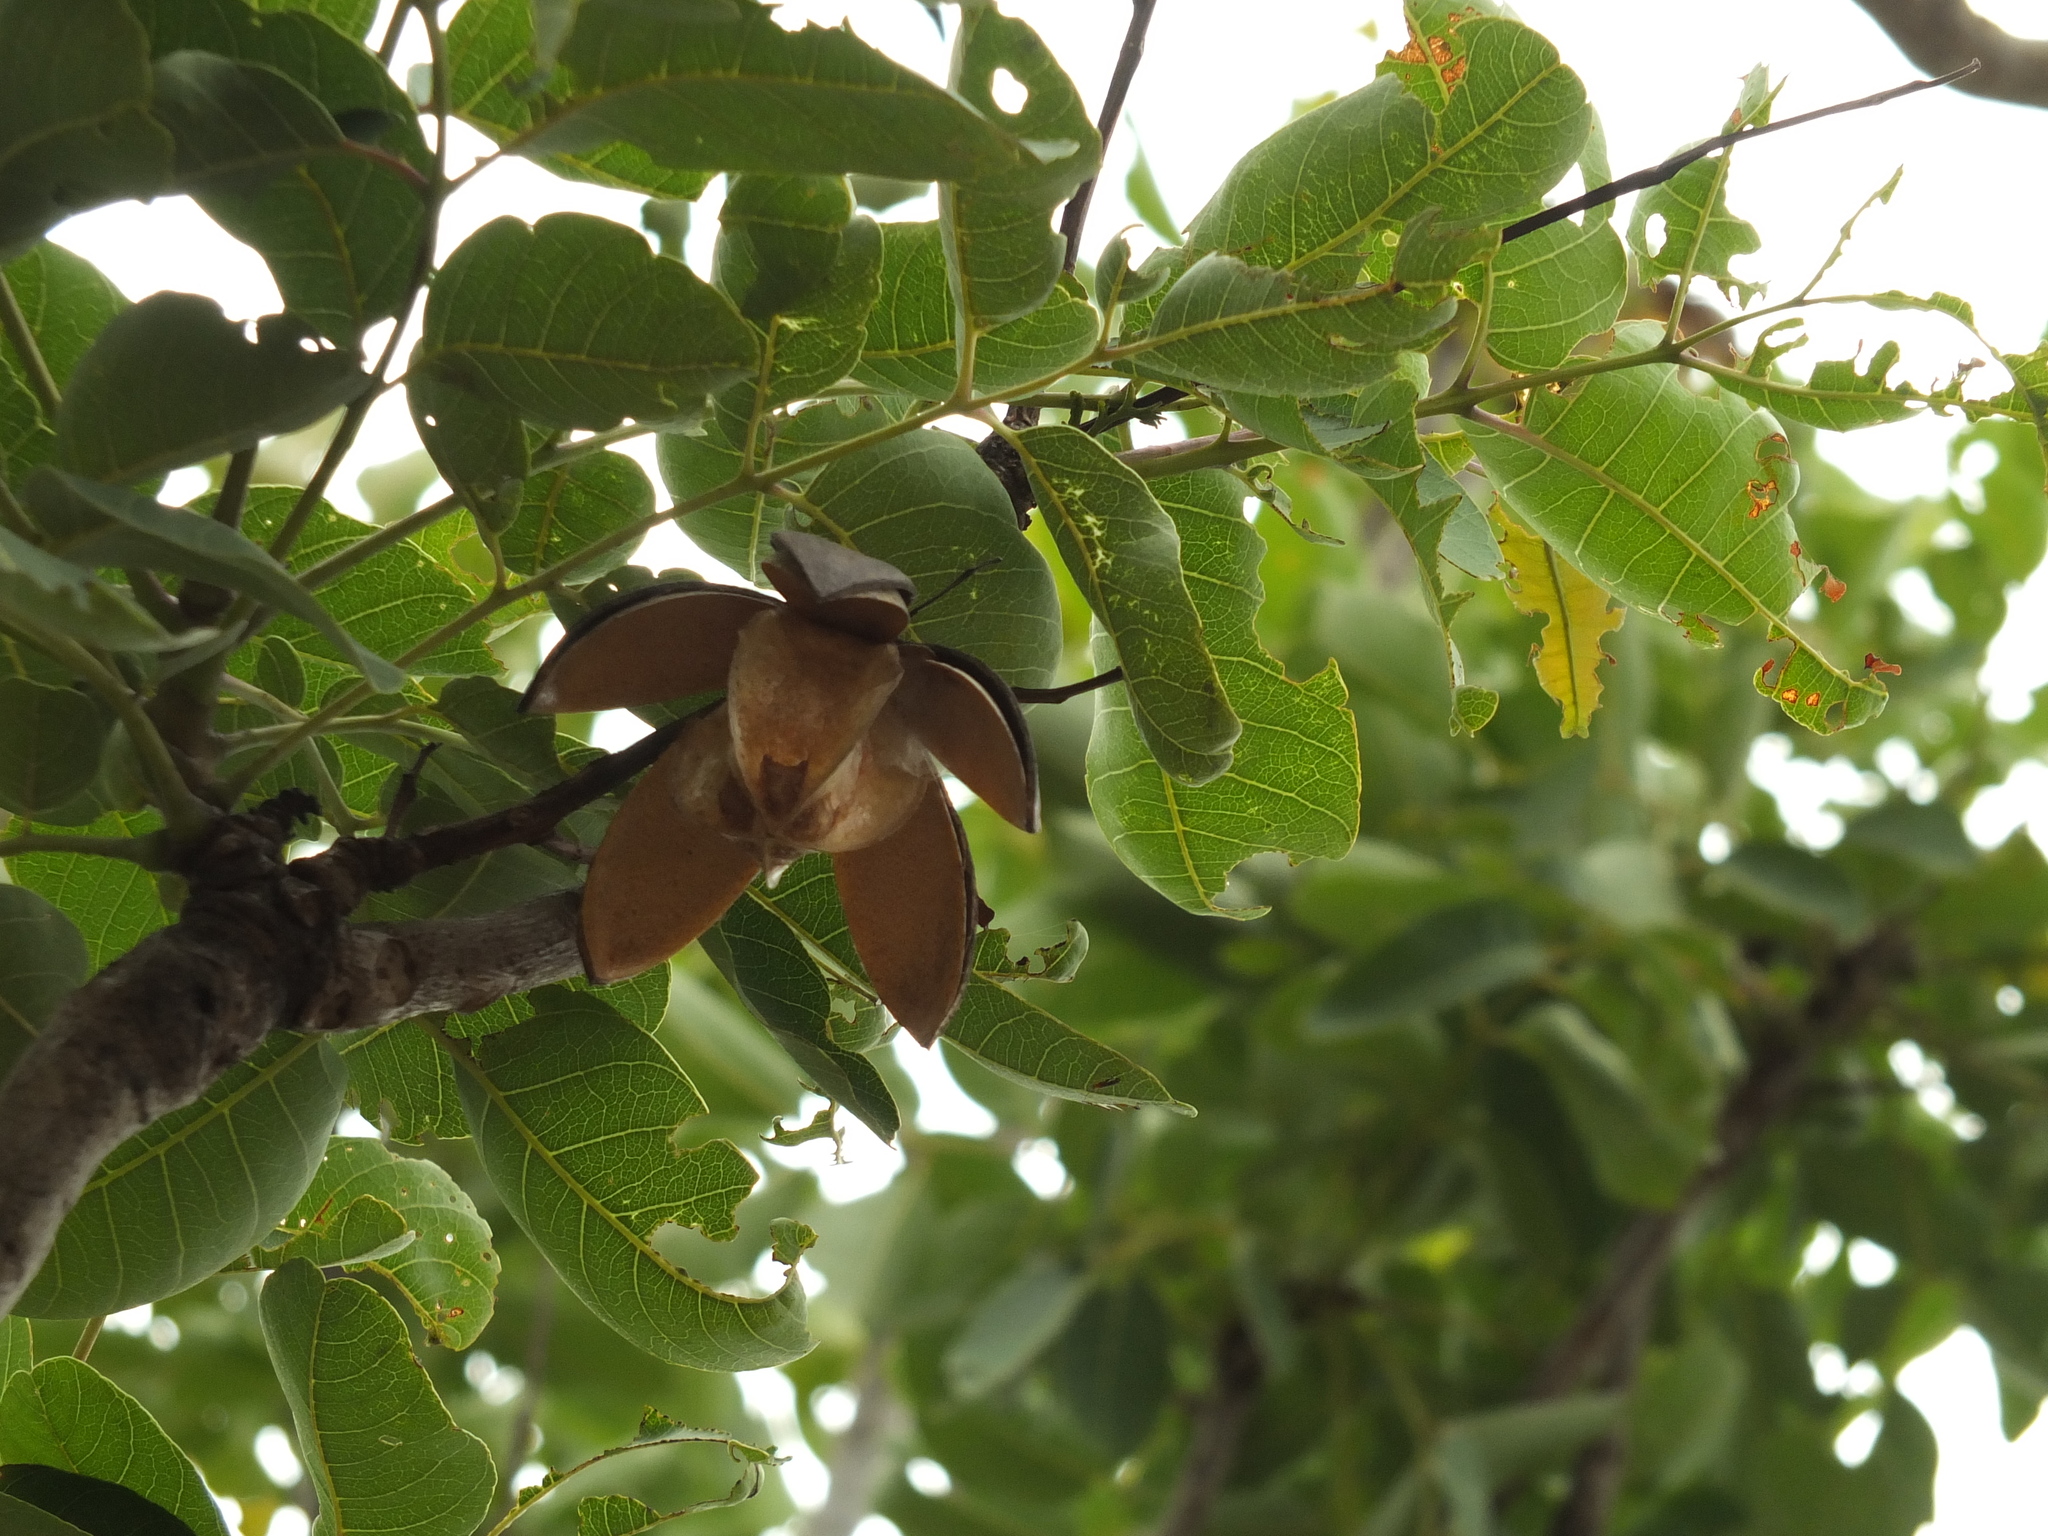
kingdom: Plantae
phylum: Tracheophyta
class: Magnoliopsida
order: Sapindales
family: Meliaceae
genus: Soymida
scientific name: Soymida febrifuga
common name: Indian-redwood
